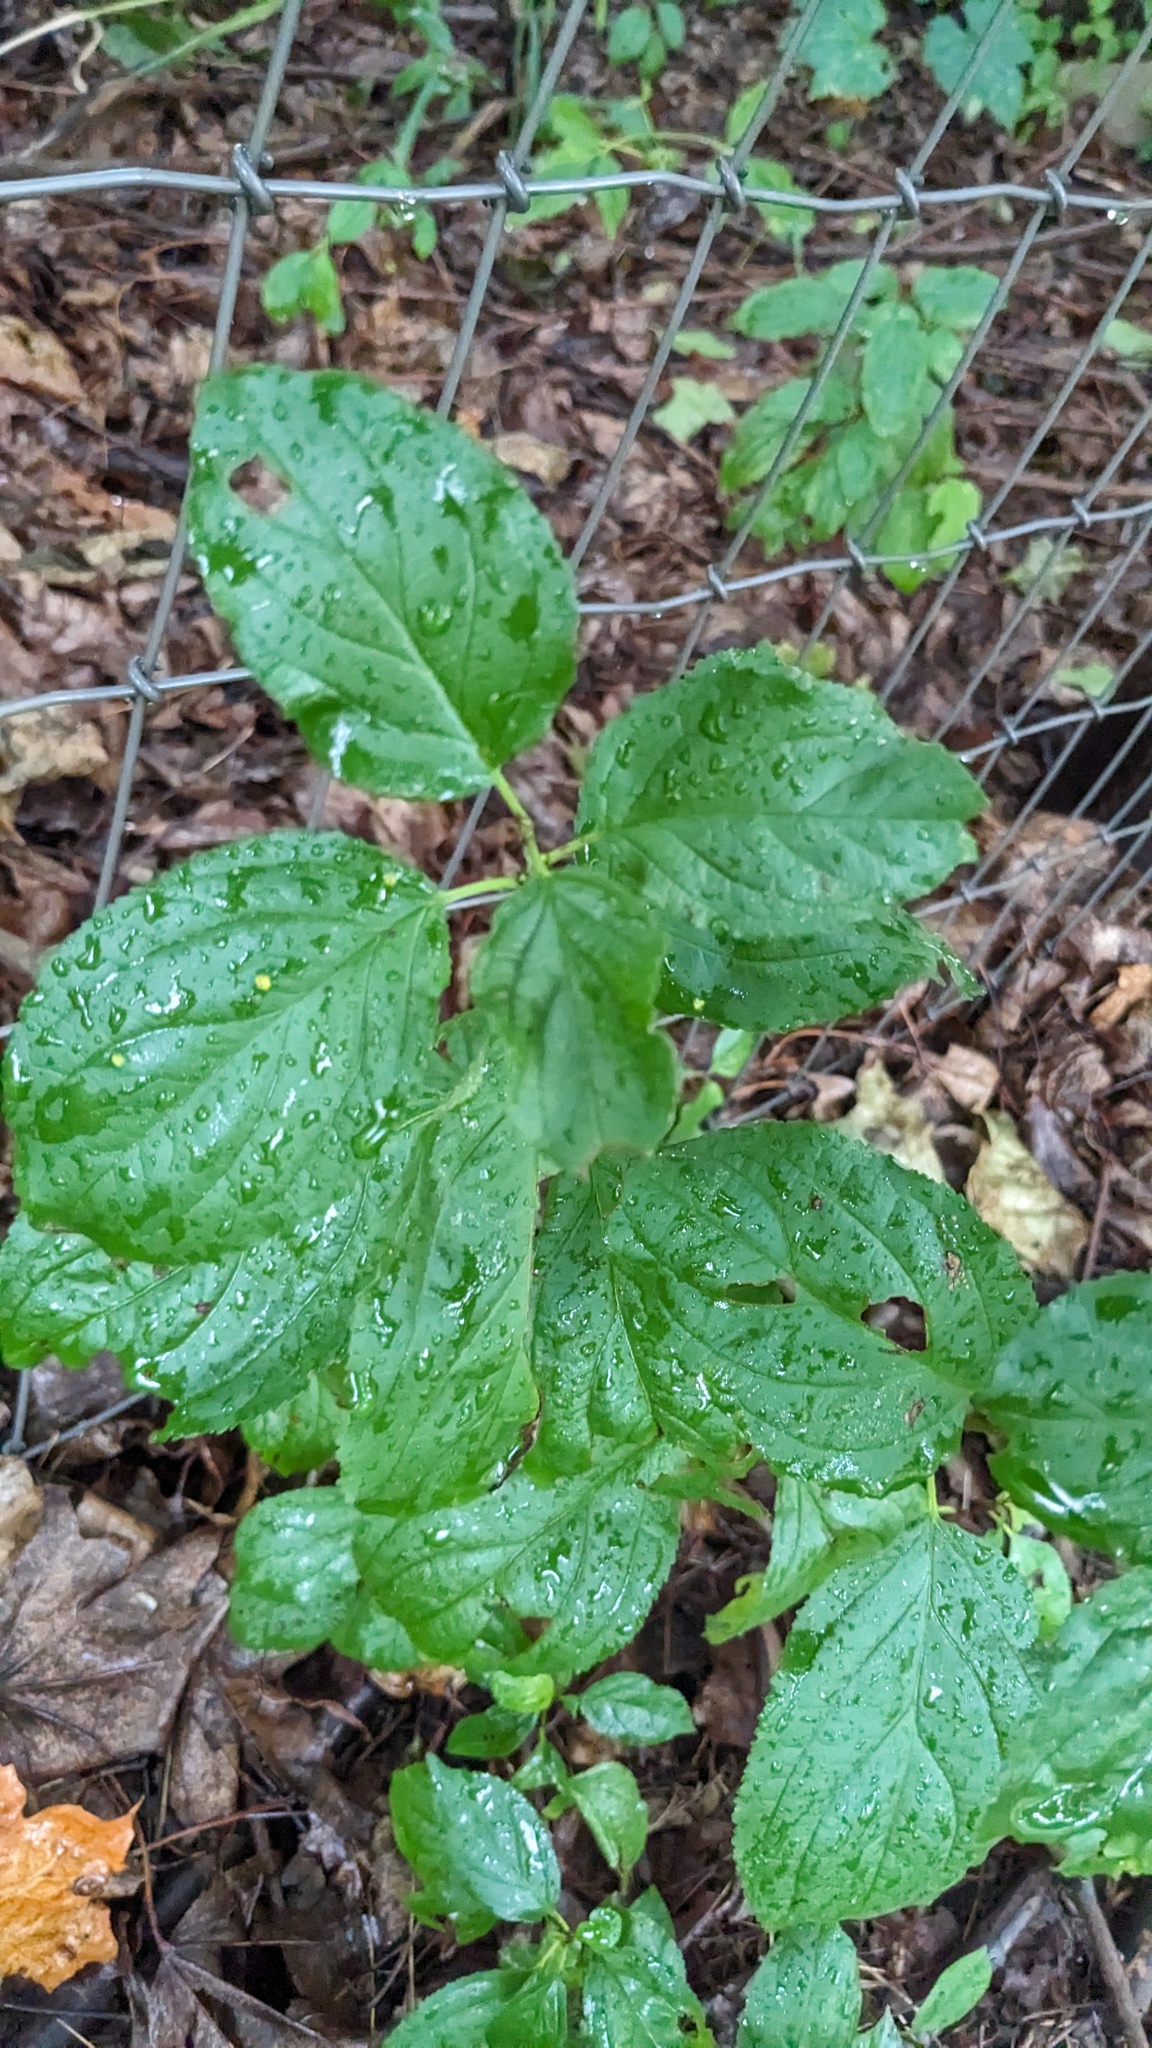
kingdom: Plantae
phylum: Tracheophyta
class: Magnoliopsida
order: Rosales
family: Rhamnaceae
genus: Rhamnus
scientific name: Rhamnus cathartica
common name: Common buckthorn
